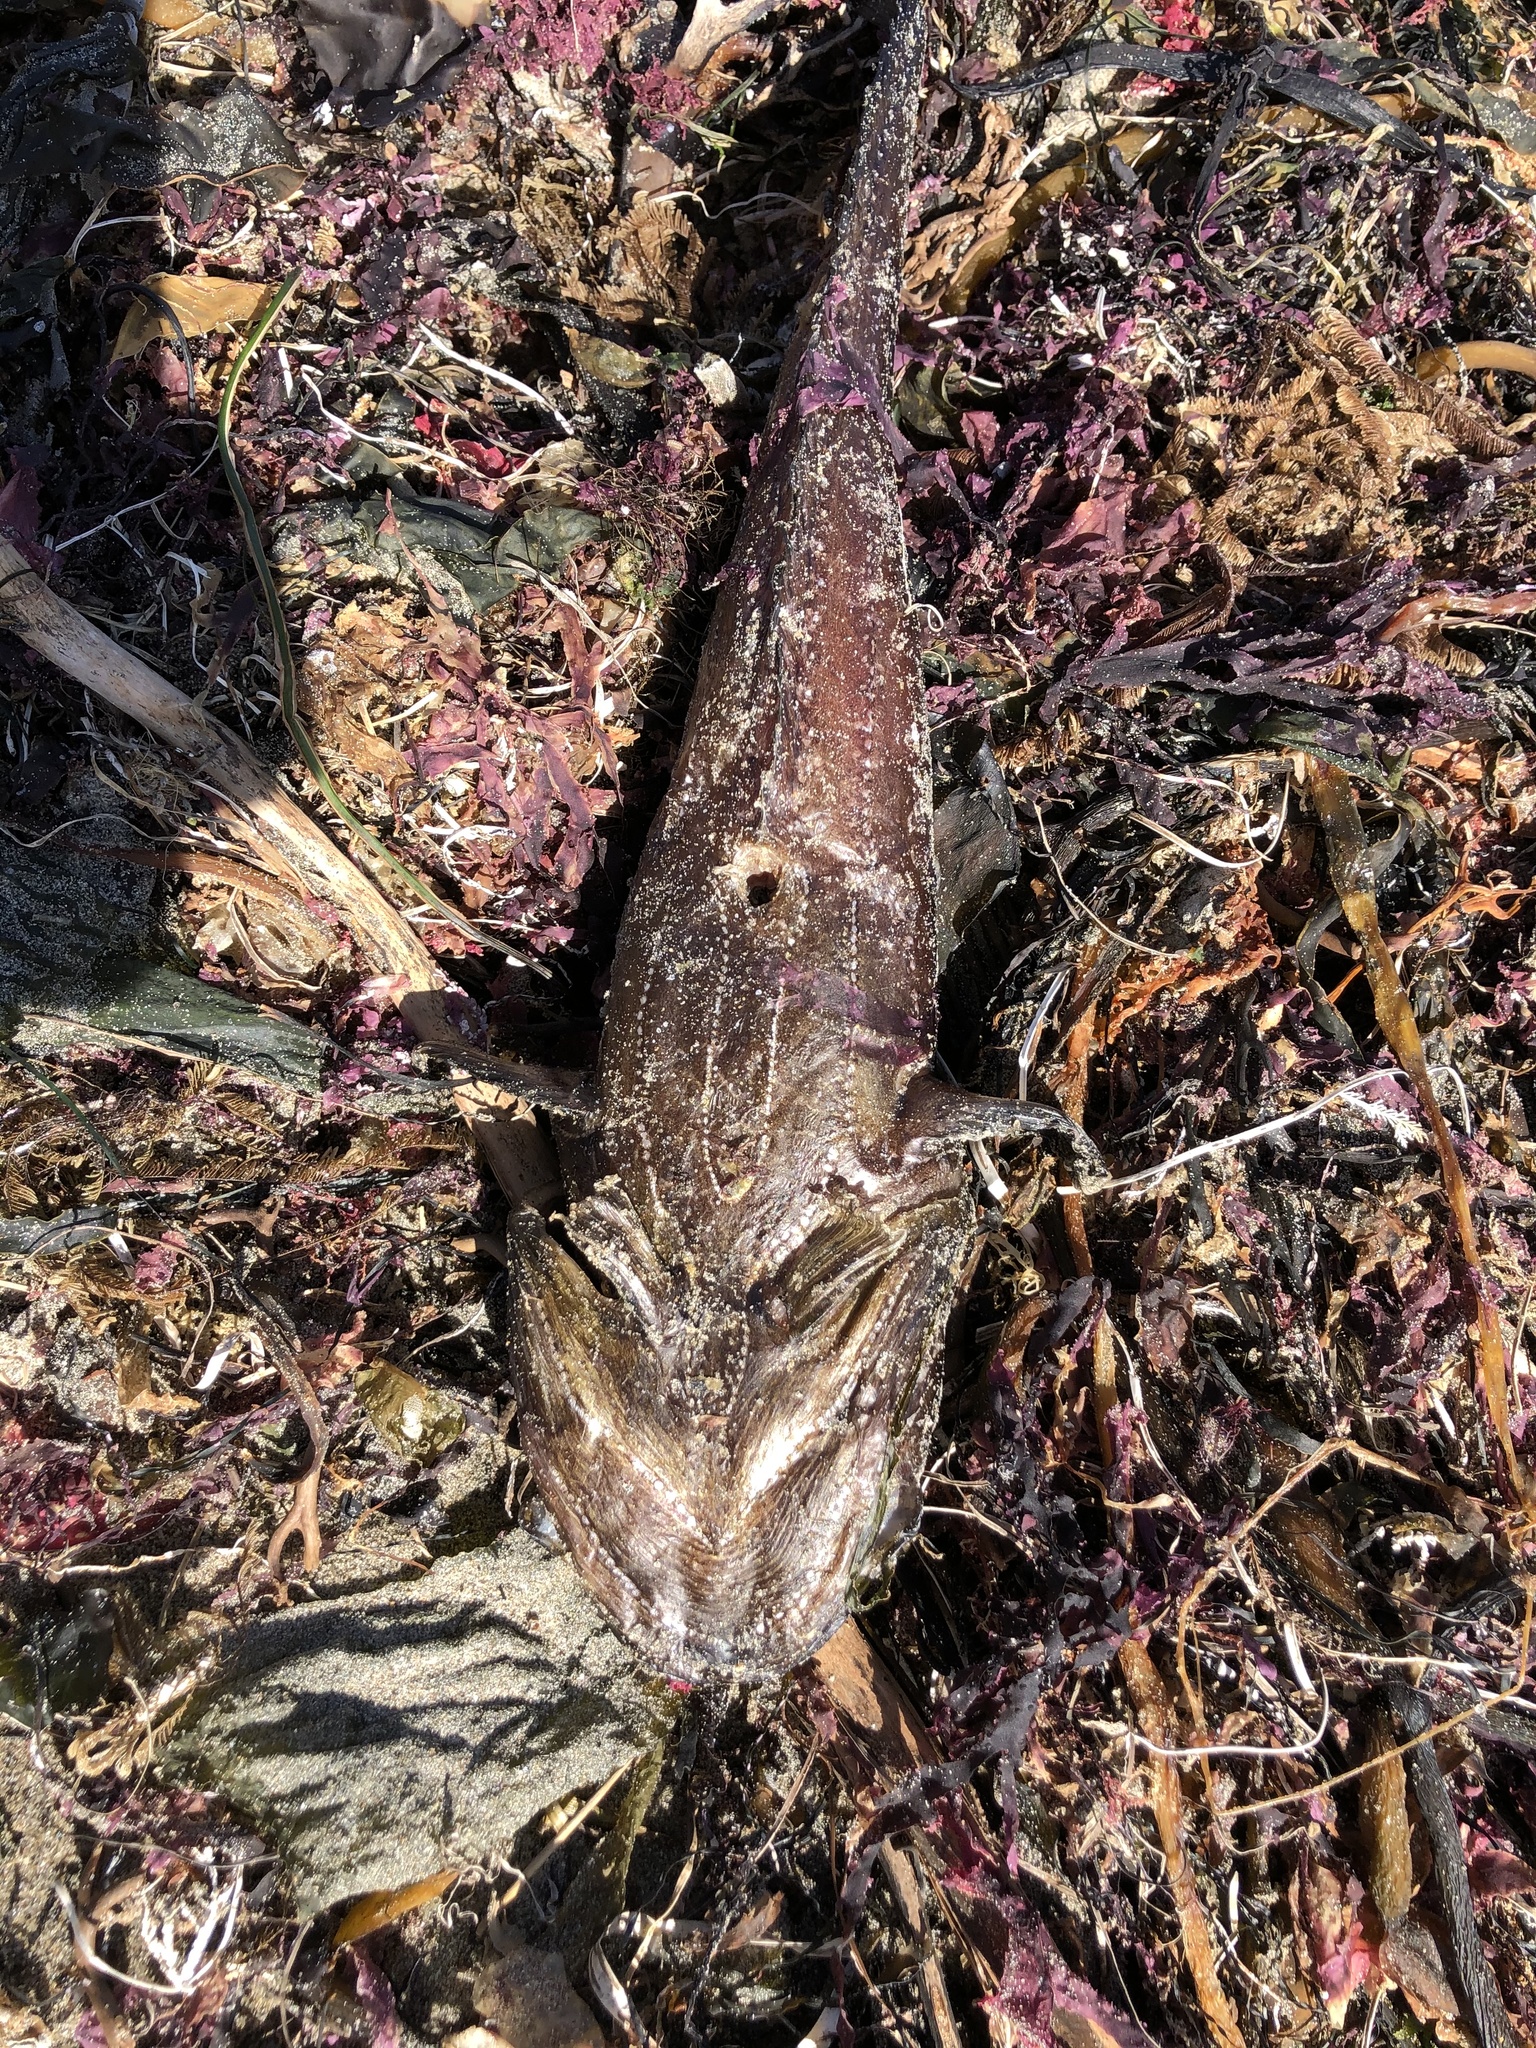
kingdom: Animalia
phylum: Chordata
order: Batrachoidiformes
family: Batrachoididae
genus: Porichthys
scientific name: Porichthys notatus
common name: Plainfin midshipman
